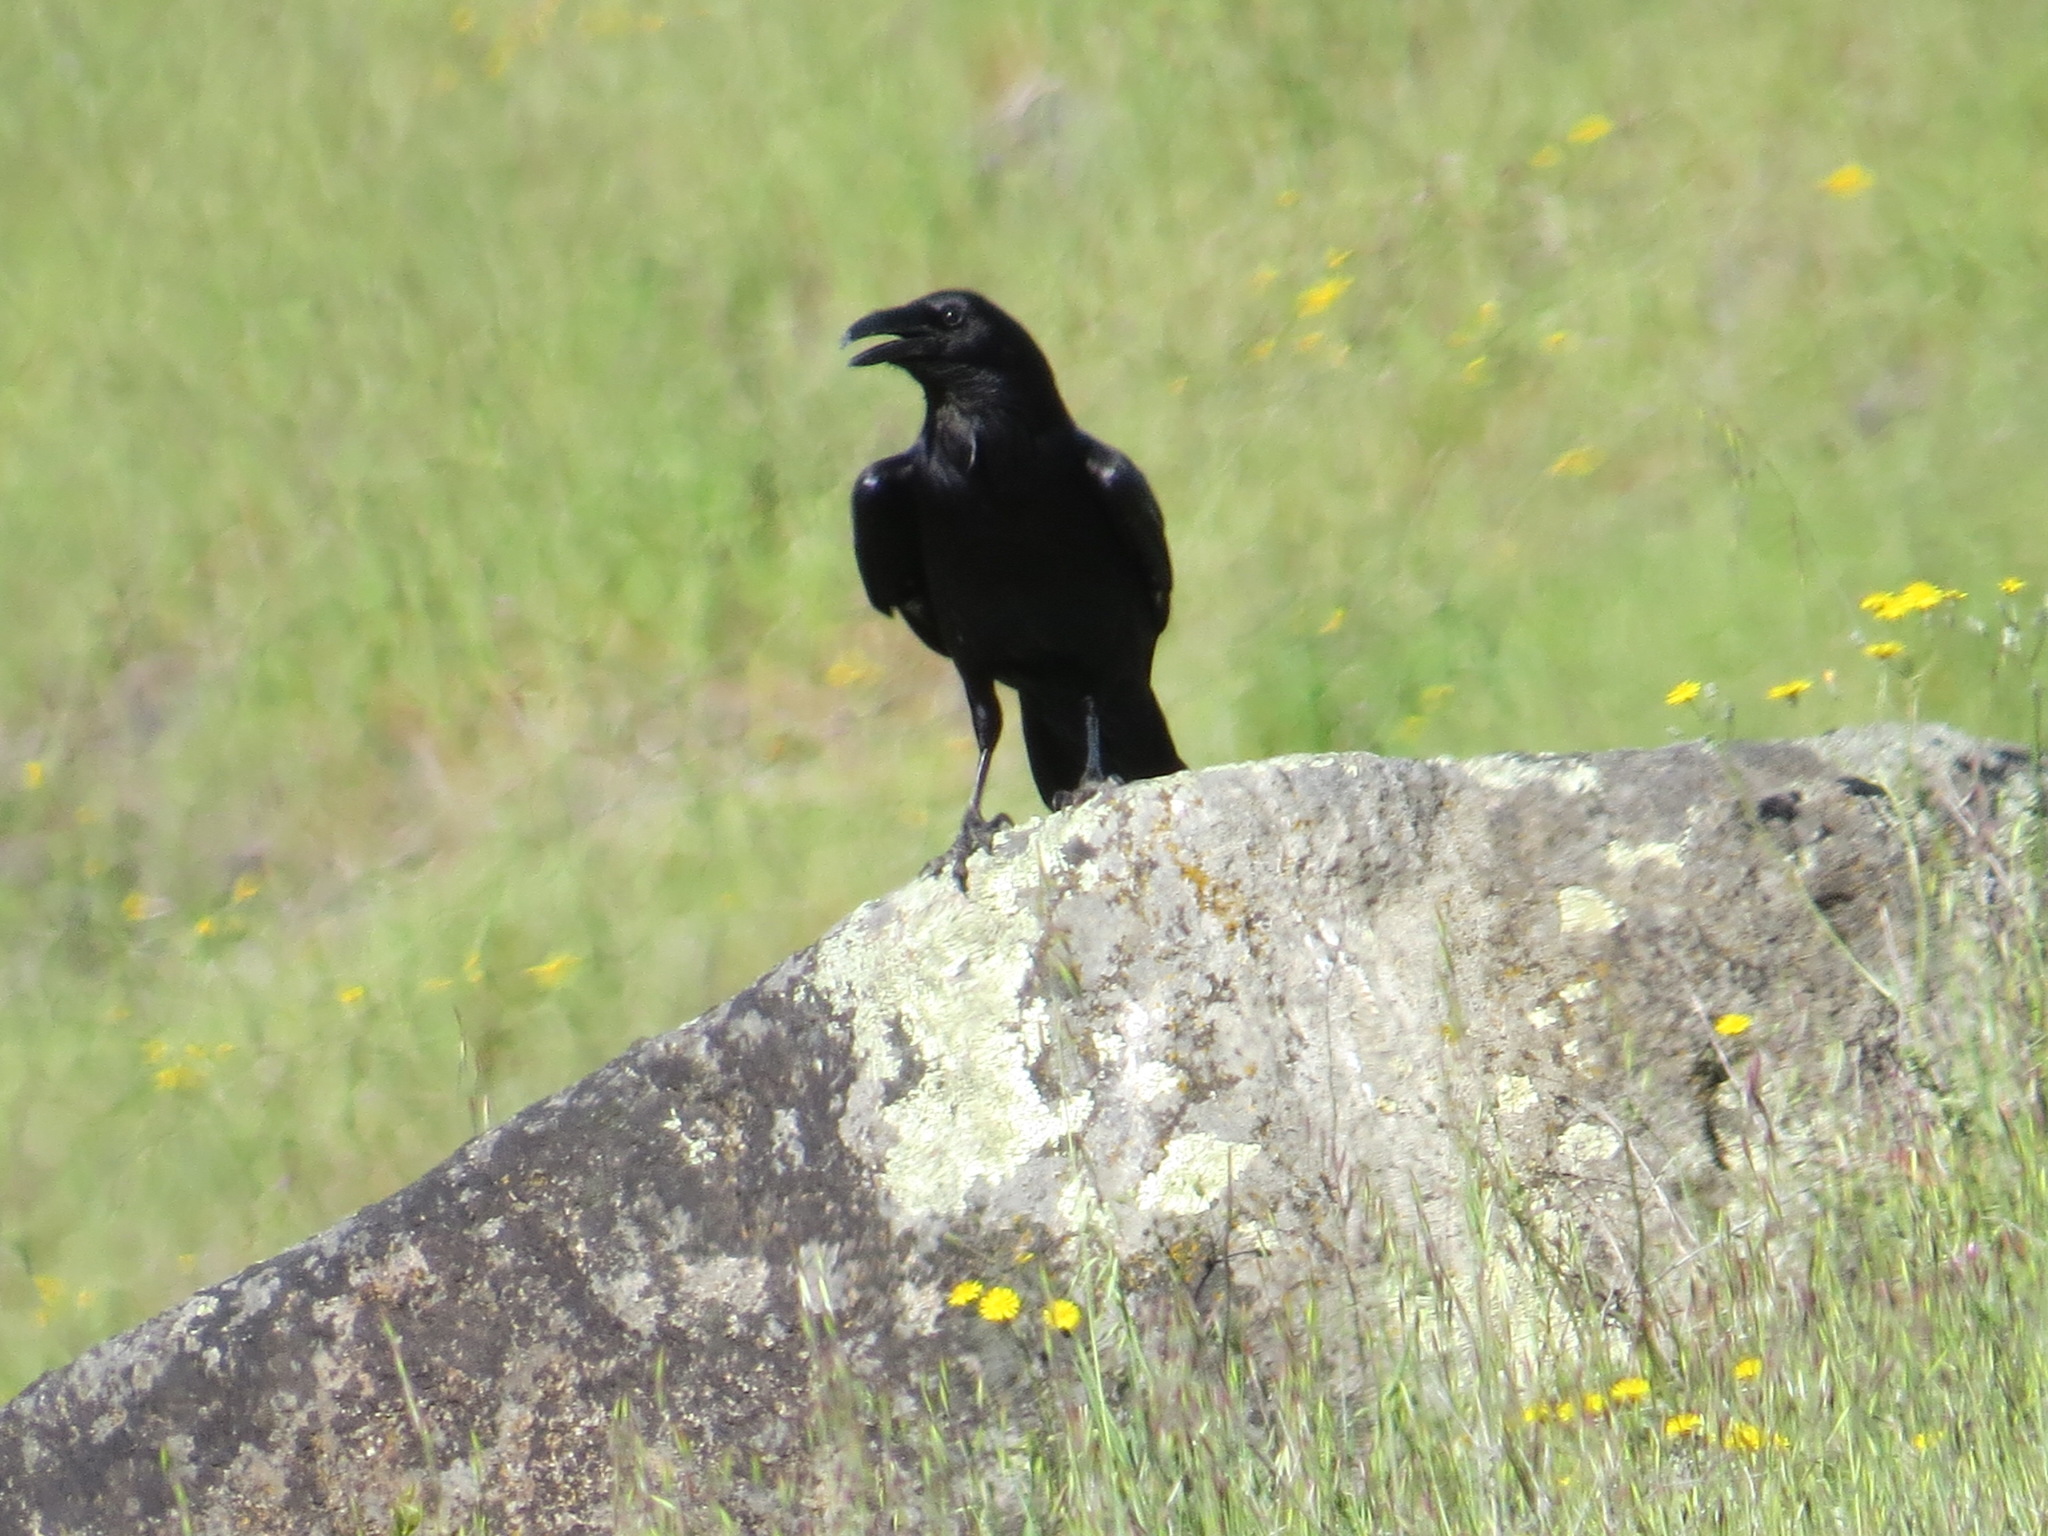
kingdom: Animalia
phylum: Chordata
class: Aves
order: Passeriformes
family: Corvidae
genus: Corvus
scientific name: Corvus corax
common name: Common raven
